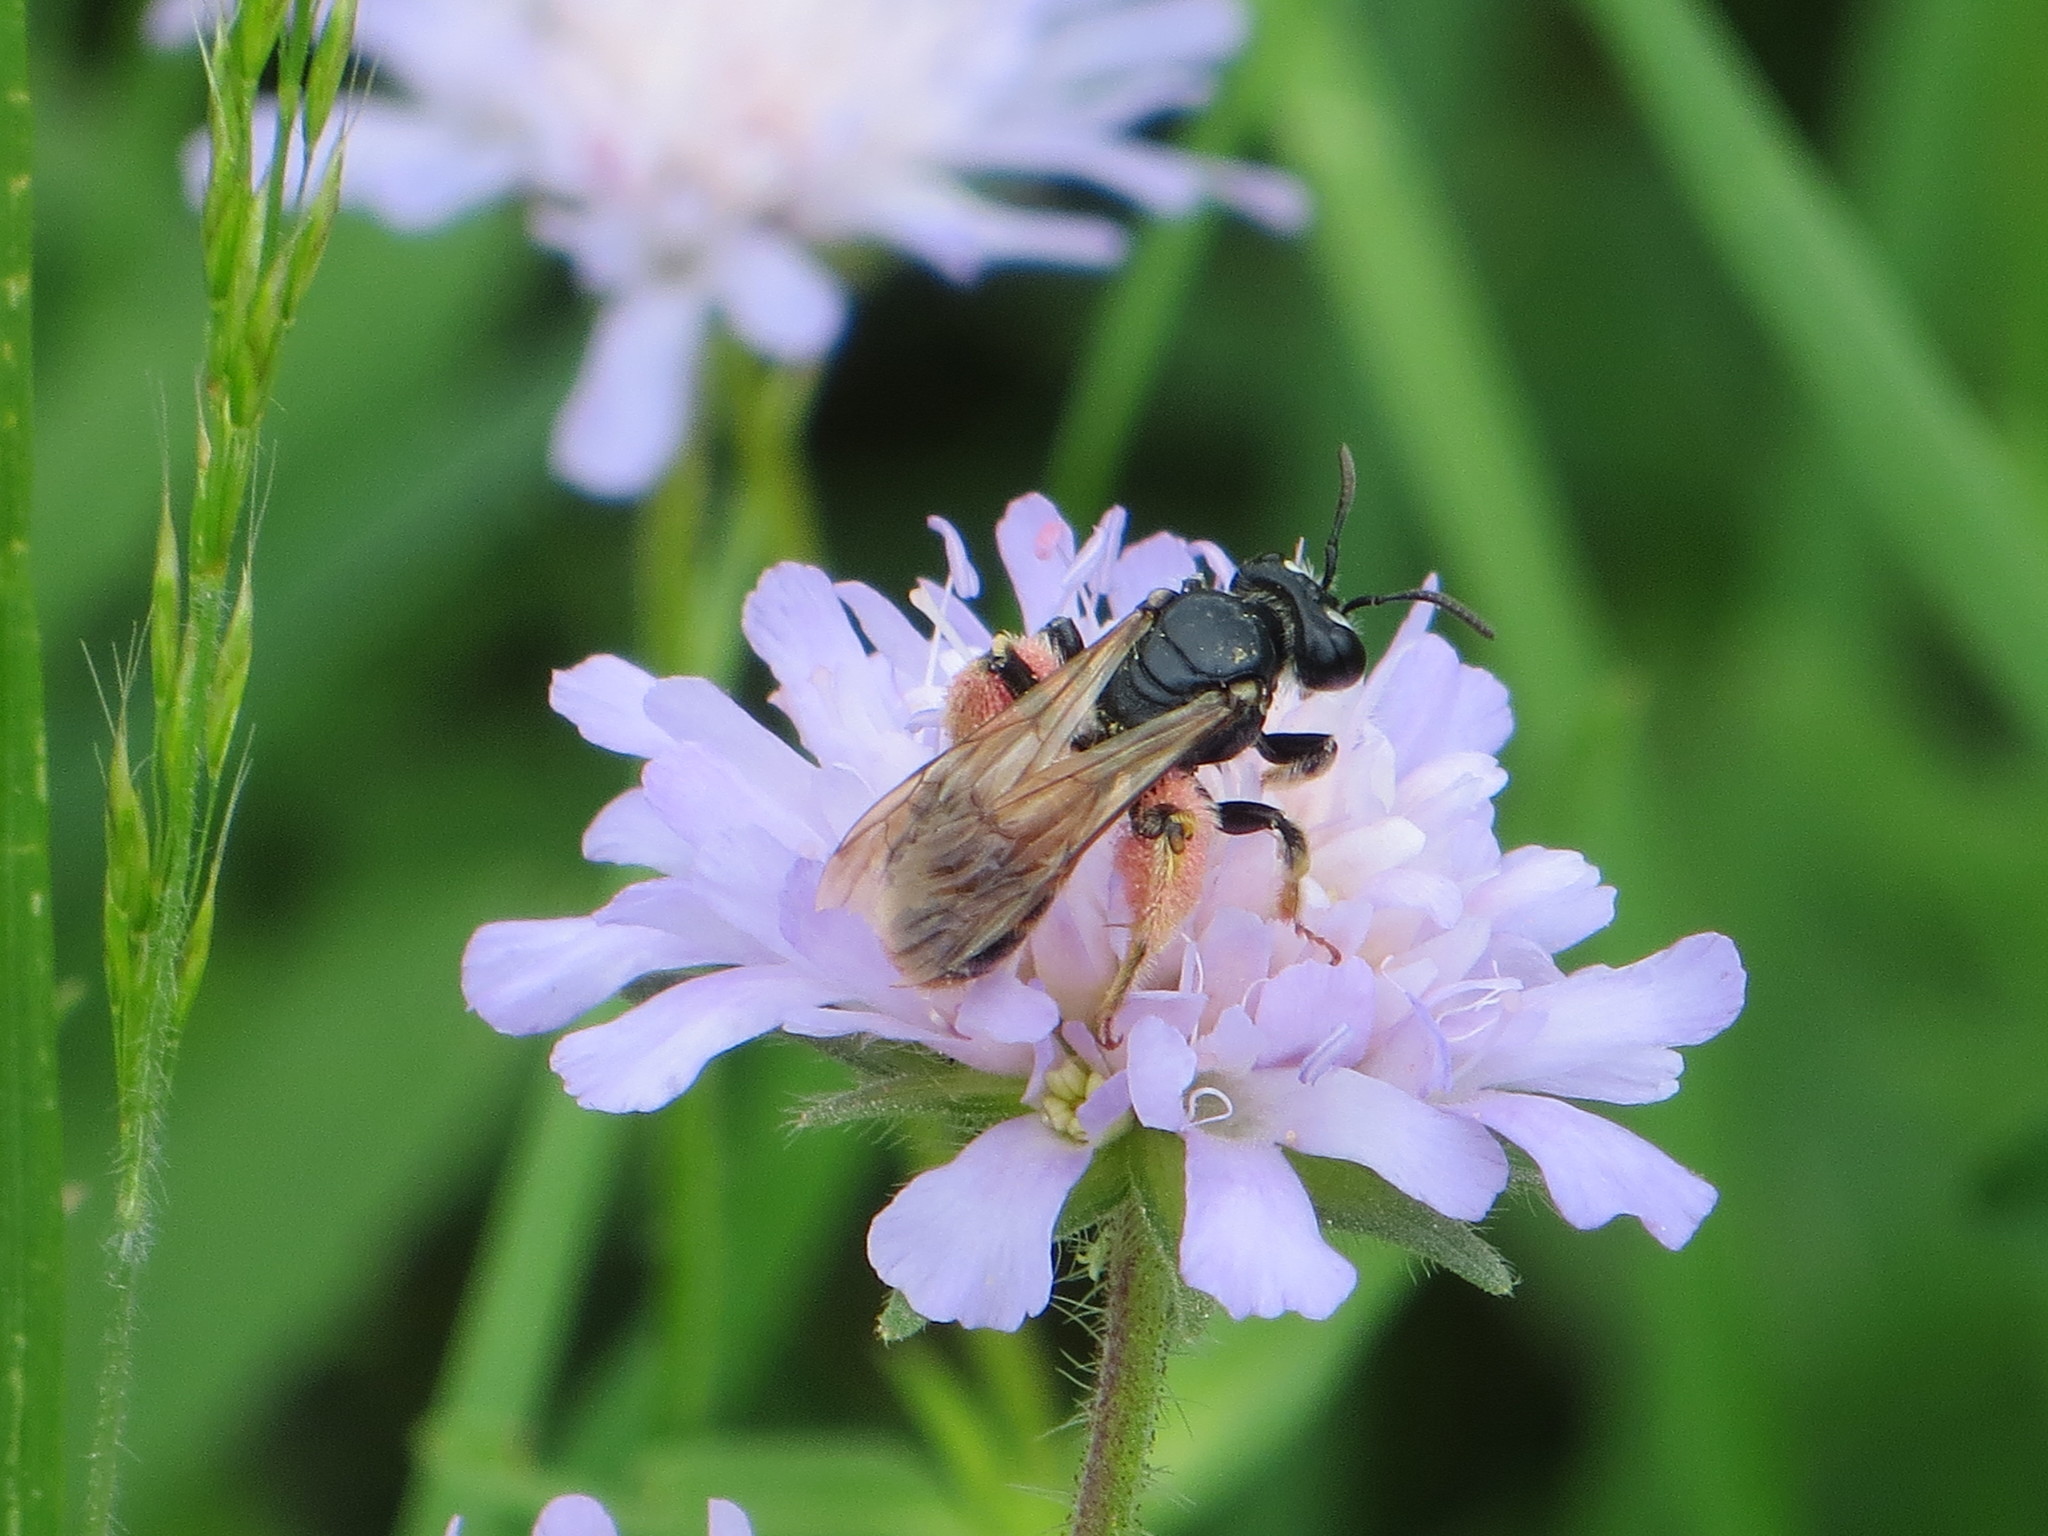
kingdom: Animalia
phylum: Arthropoda
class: Insecta
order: Hymenoptera
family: Andrenidae
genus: Andrena
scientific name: Andrena hattorfiana
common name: Large scabious mining bee
